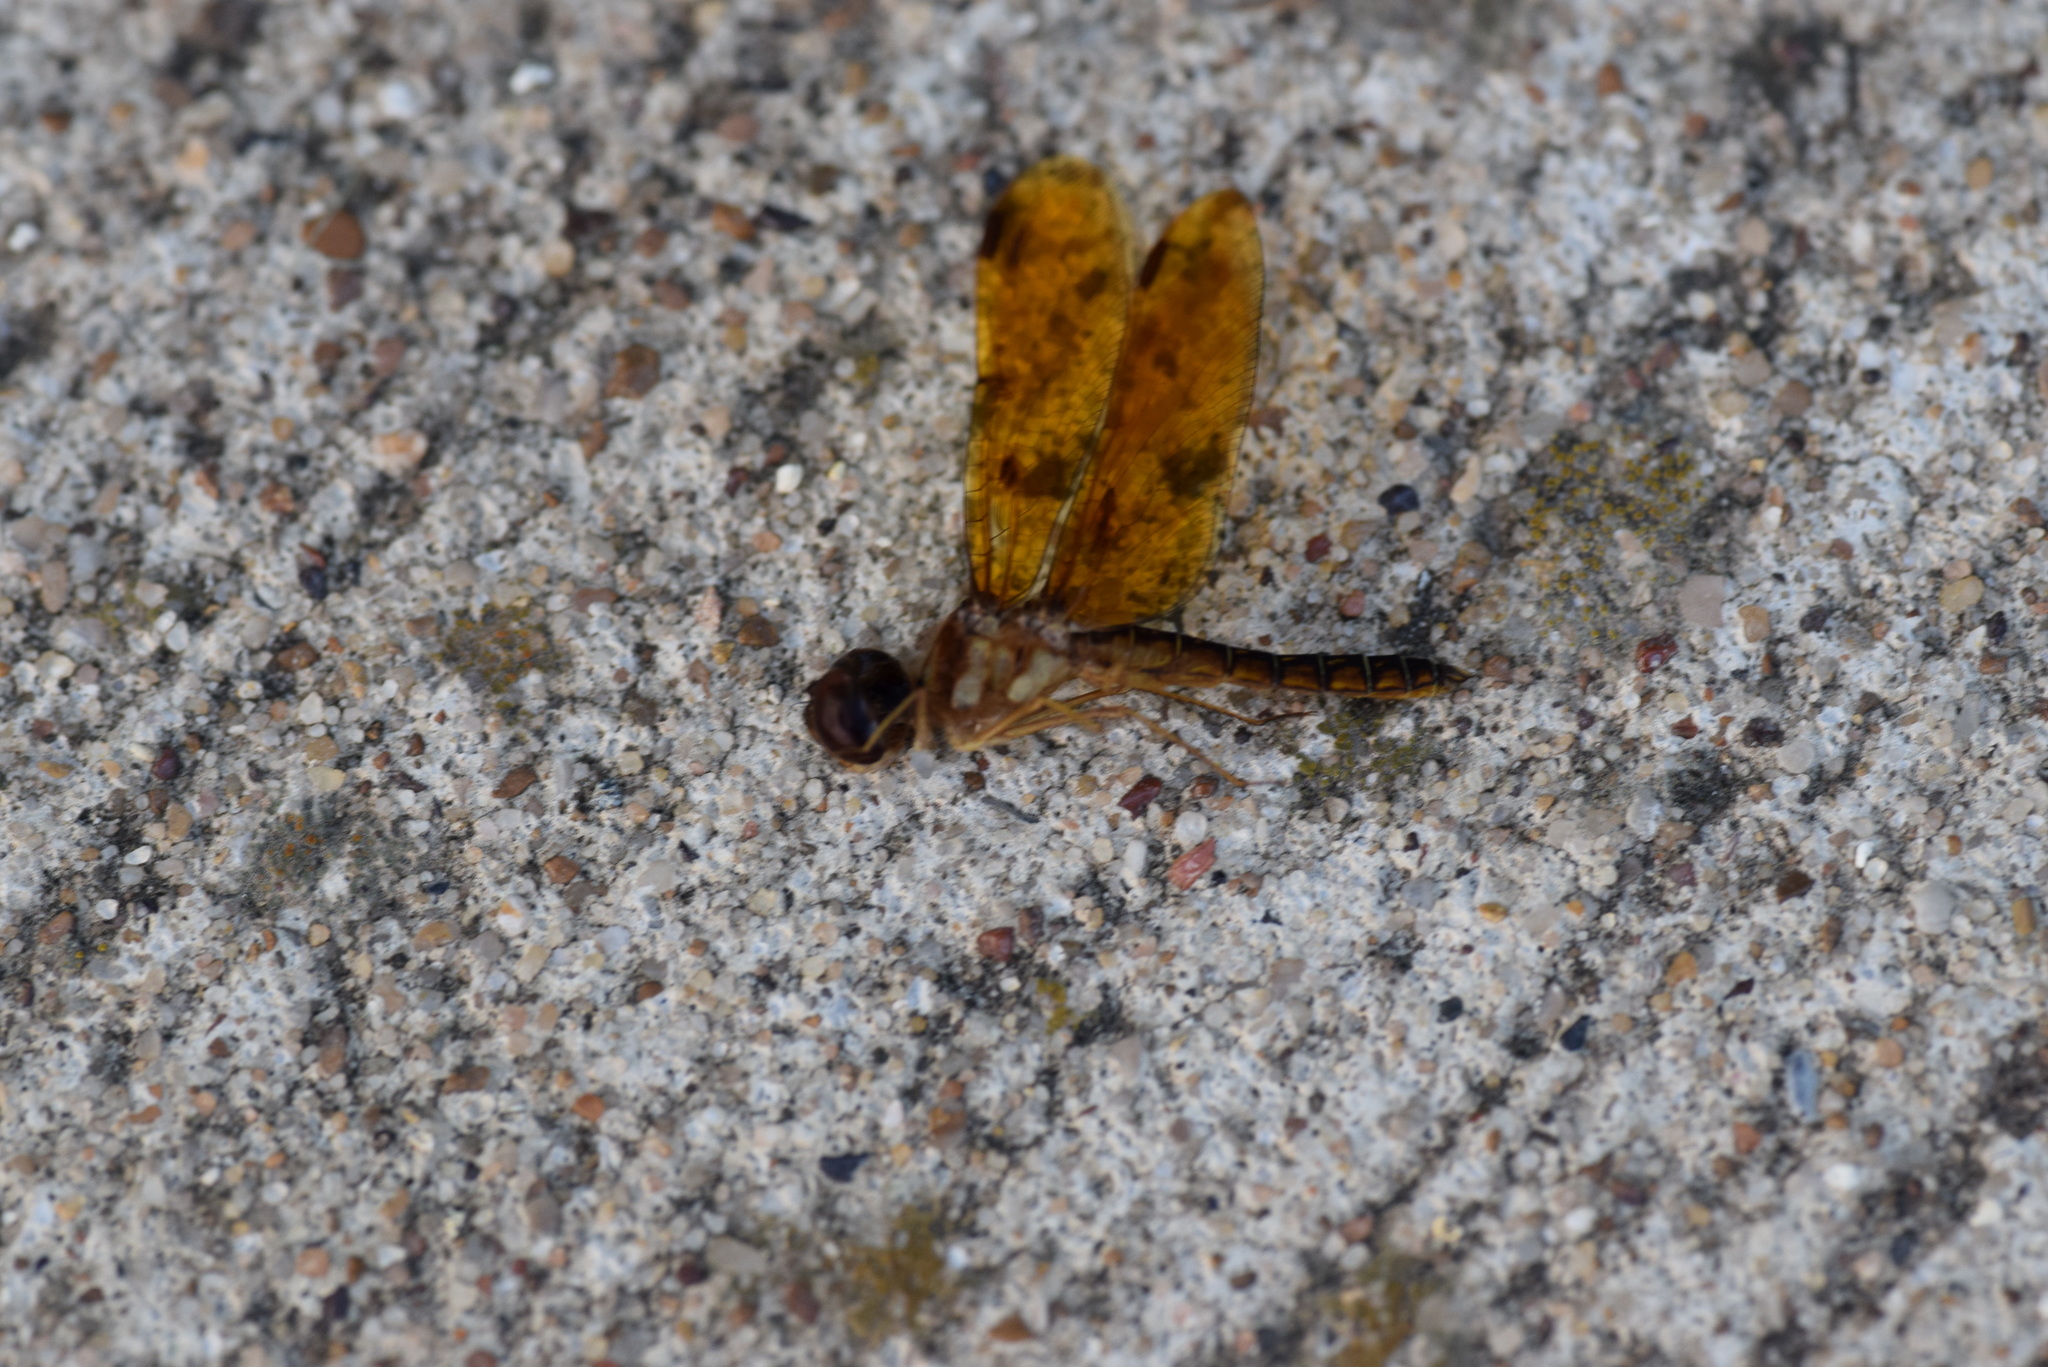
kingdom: Animalia
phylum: Arthropoda
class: Insecta
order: Odonata
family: Libellulidae
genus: Perithemis
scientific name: Perithemis tenera
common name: Eastern amberwing
